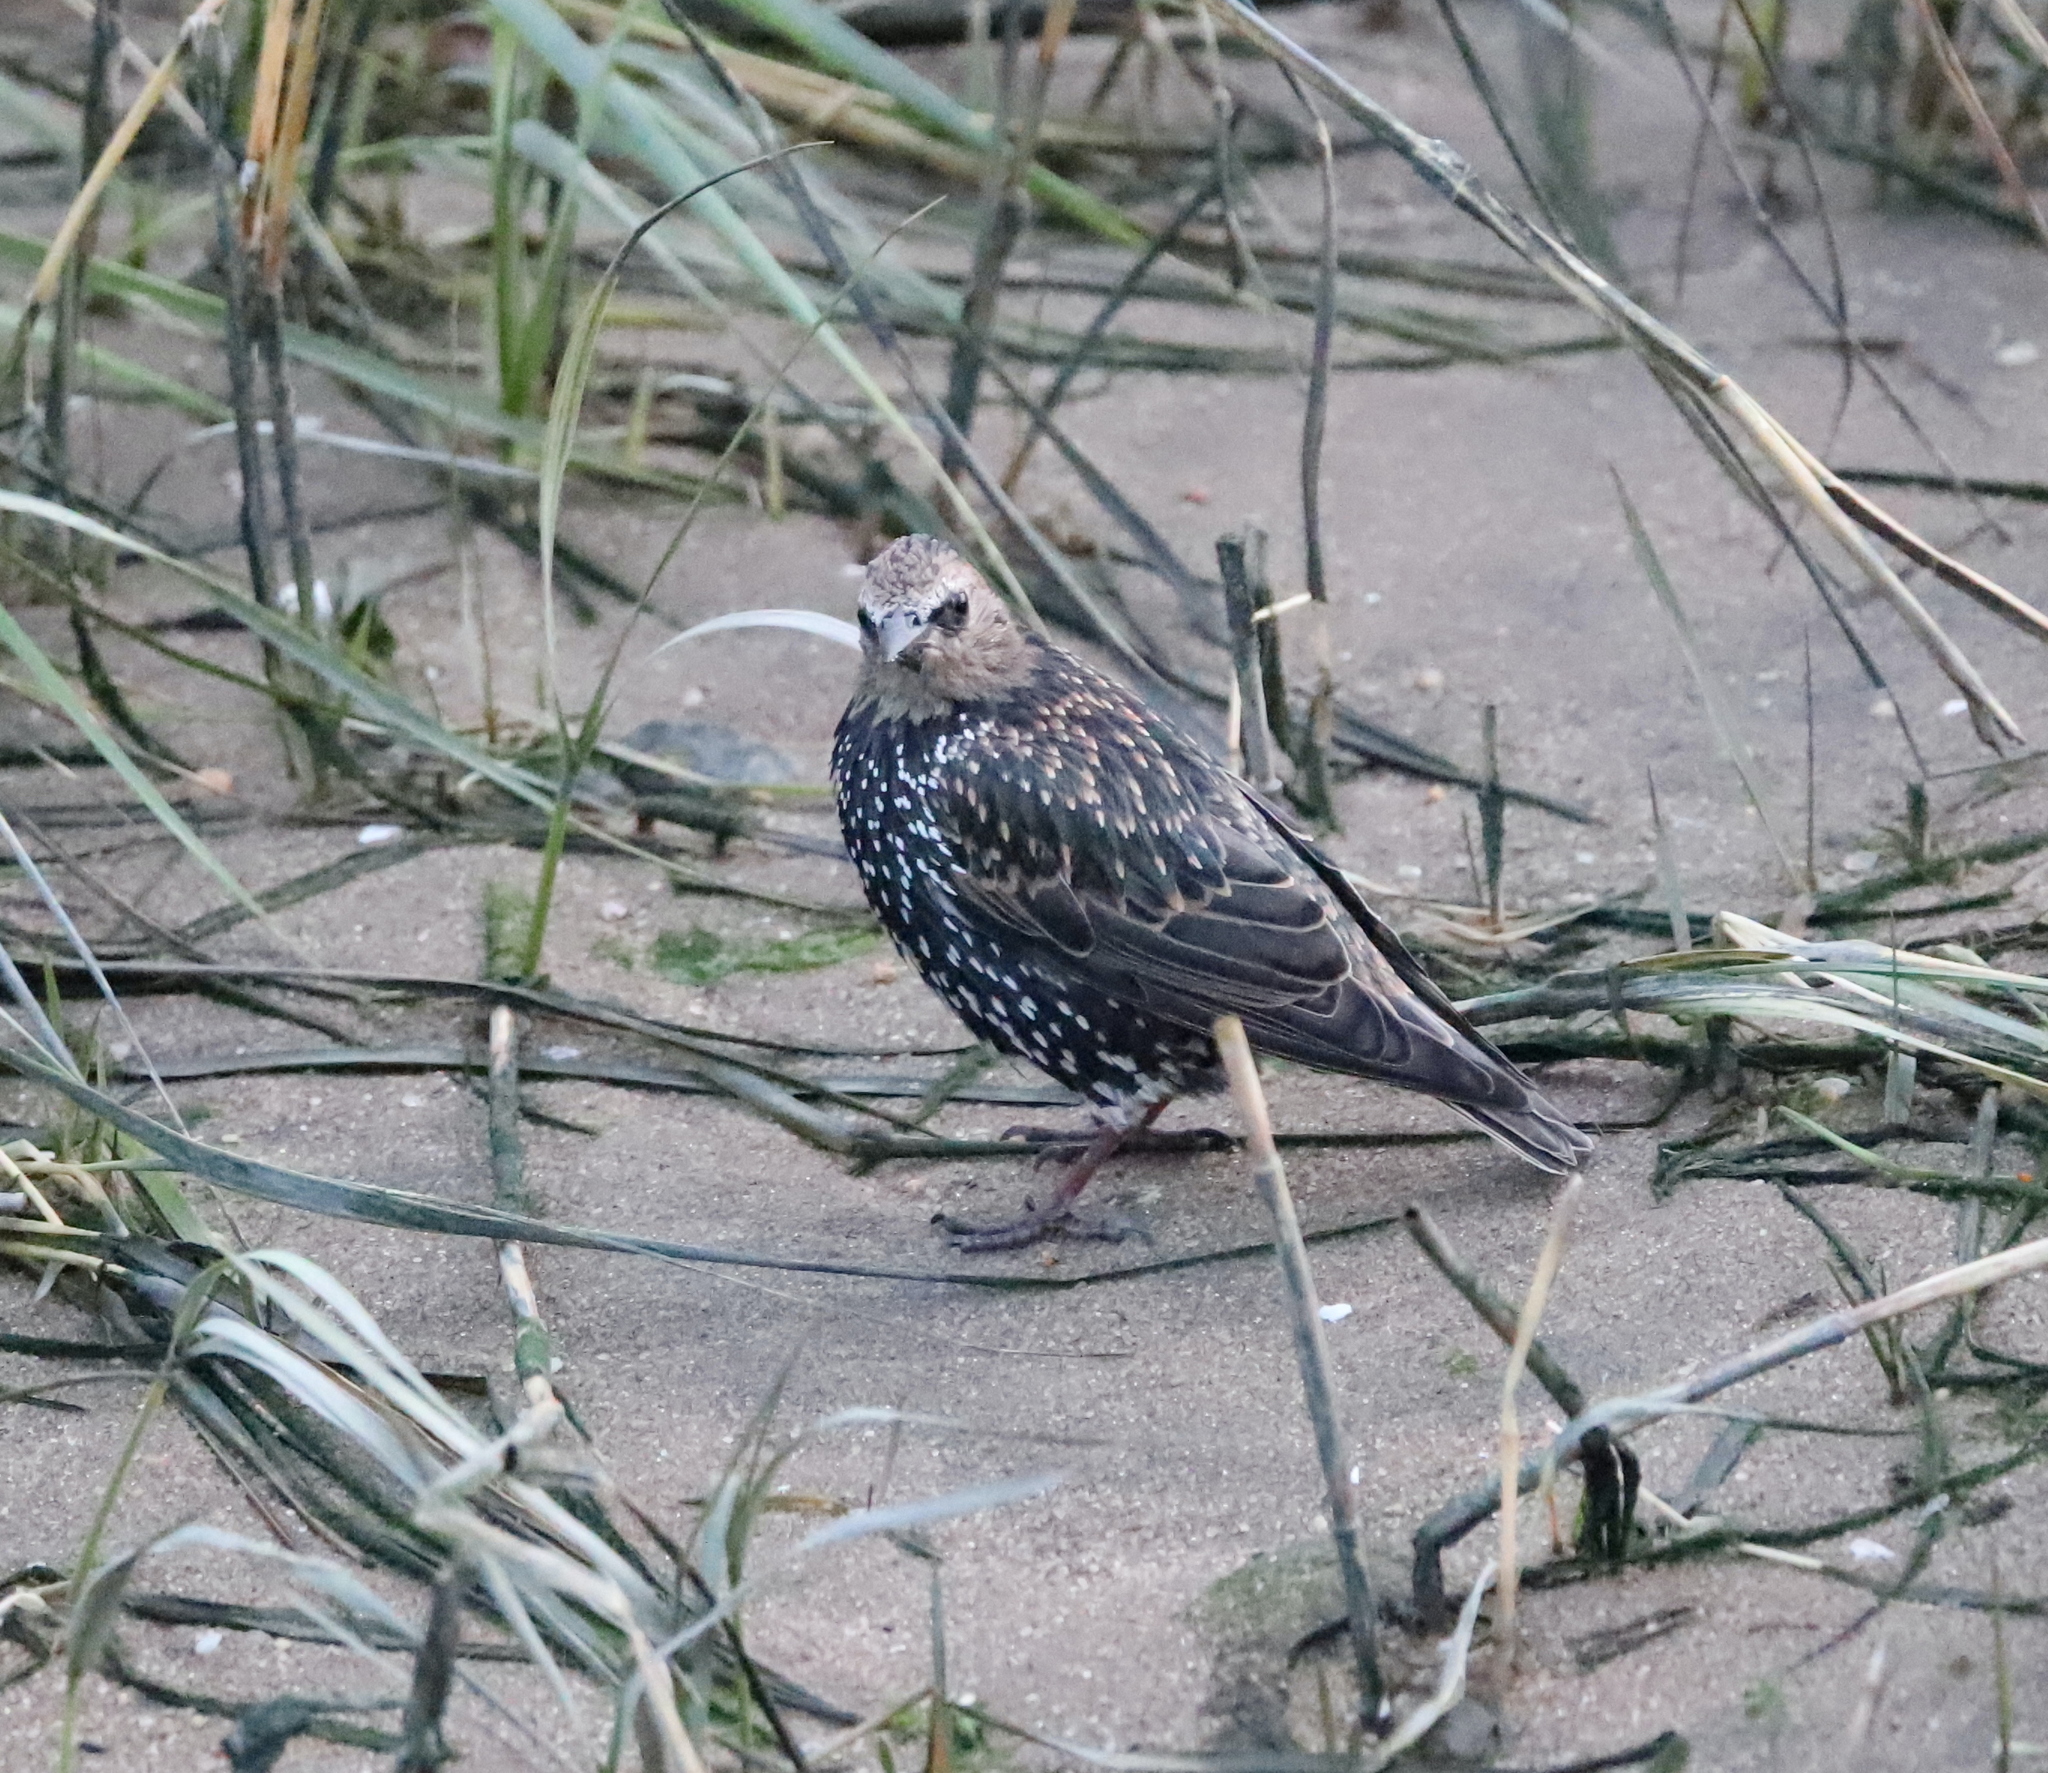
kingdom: Animalia
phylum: Chordata
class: Aves
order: Passeriformes
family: Sturnidae
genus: Sturnus
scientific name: Sturnus vulgaris
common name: Common starling
